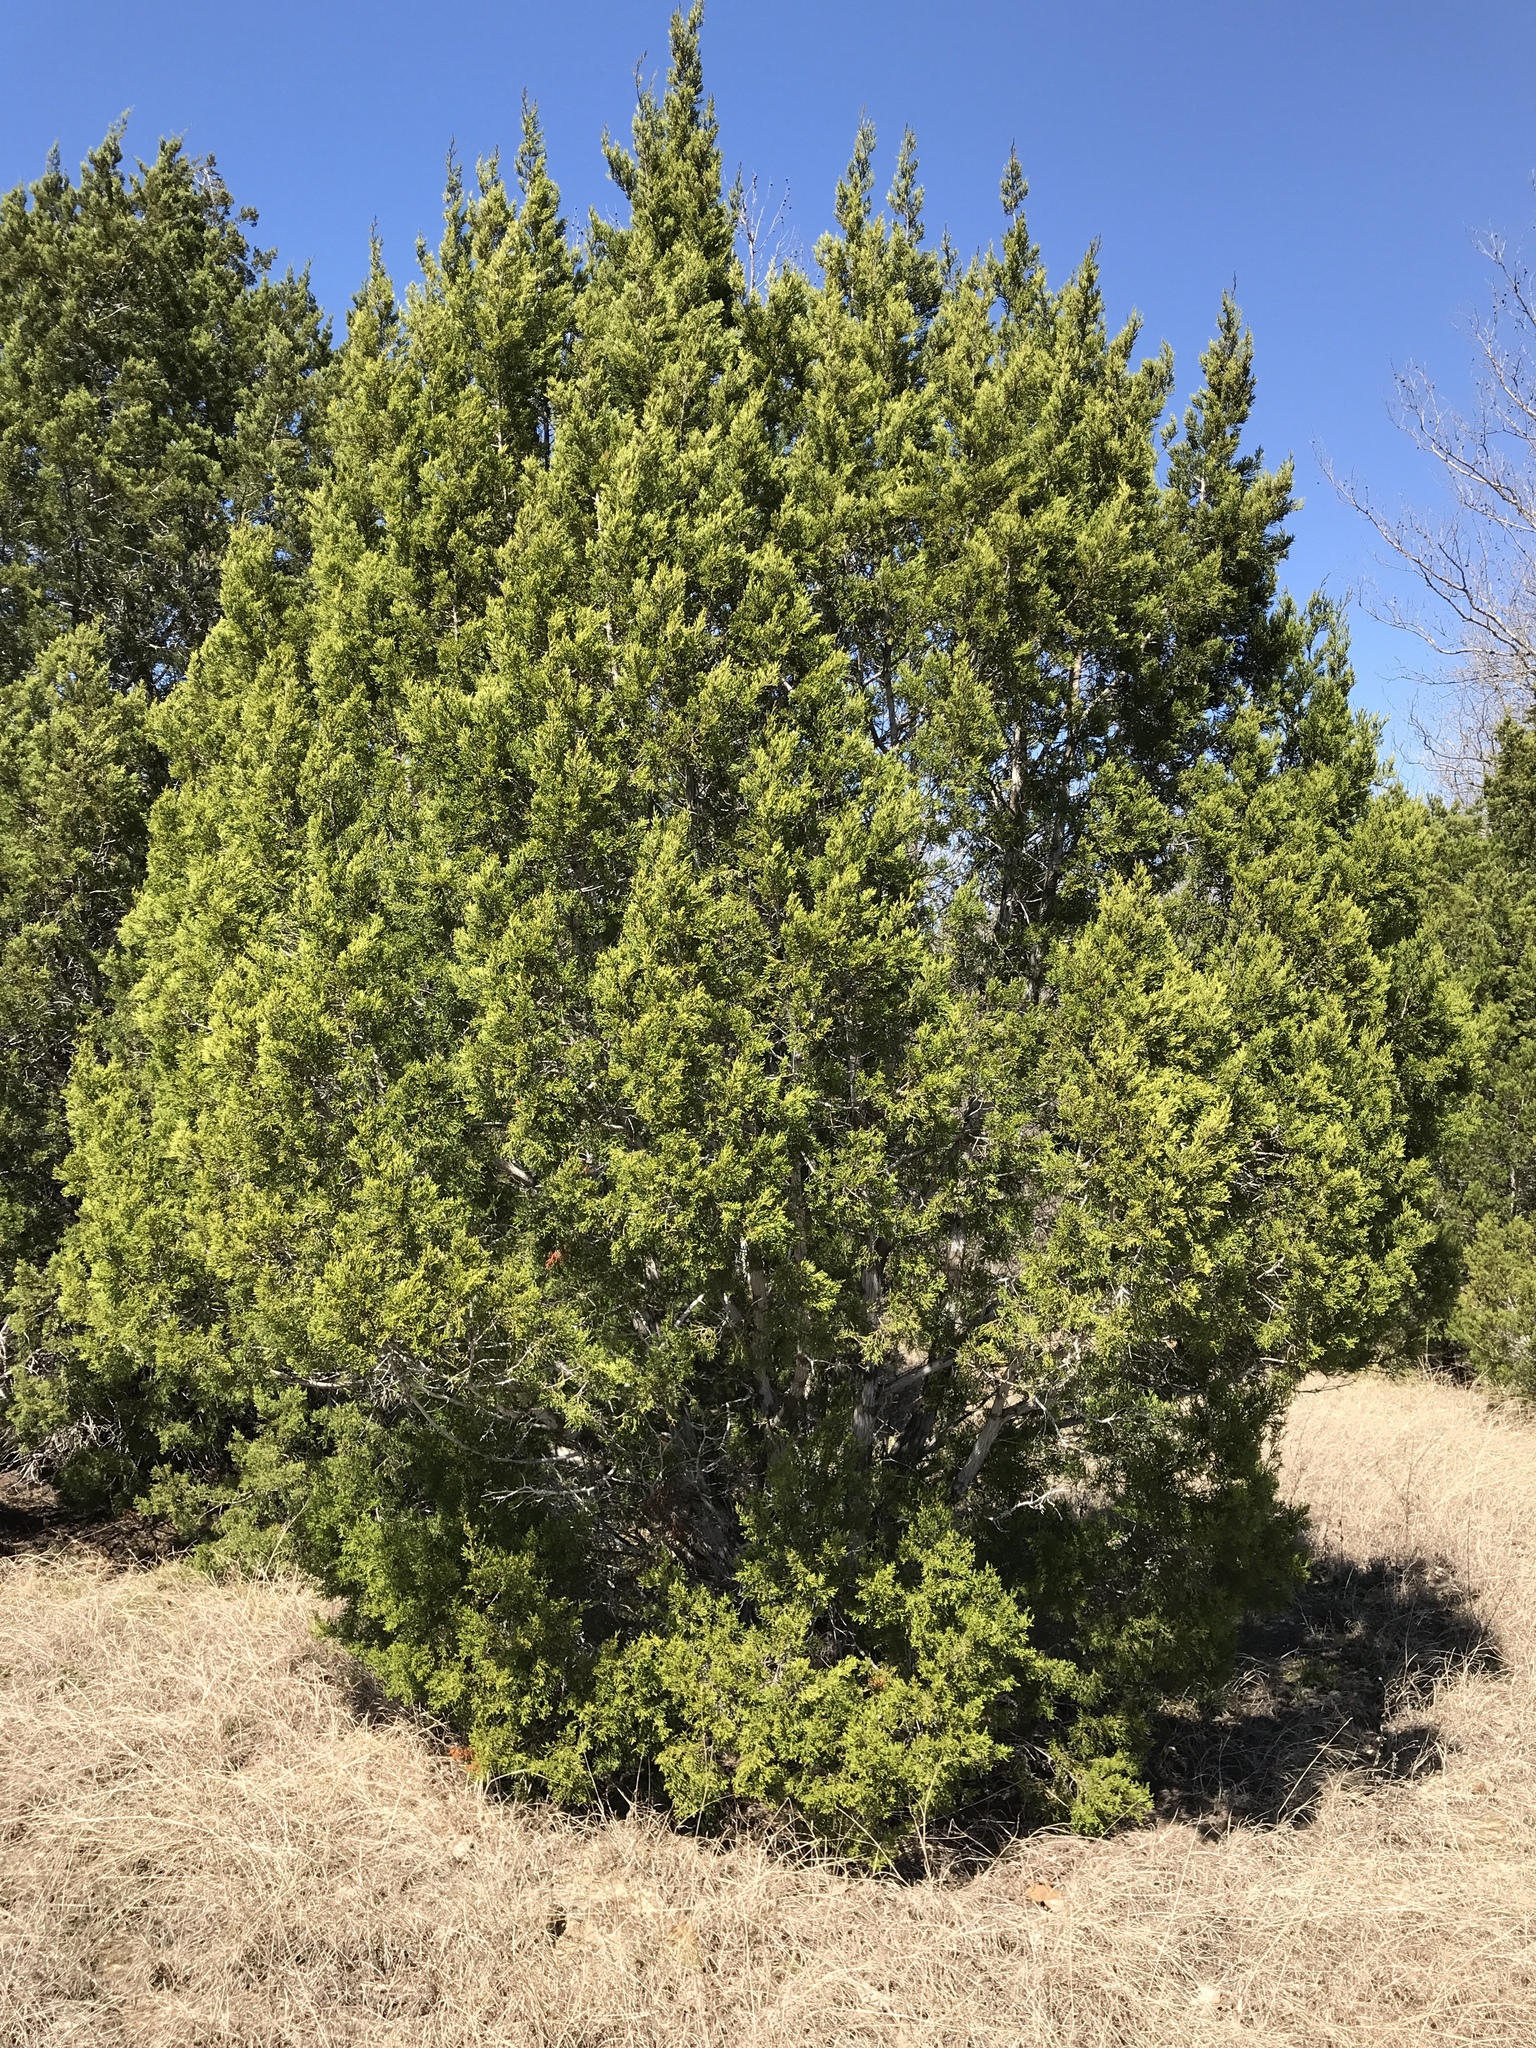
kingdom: Plantae
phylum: Tracheophyta
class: Pinopsida
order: Pinales
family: Cupressaceae
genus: Juniperus
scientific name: Juniperus ashei
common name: Mexican juniper
